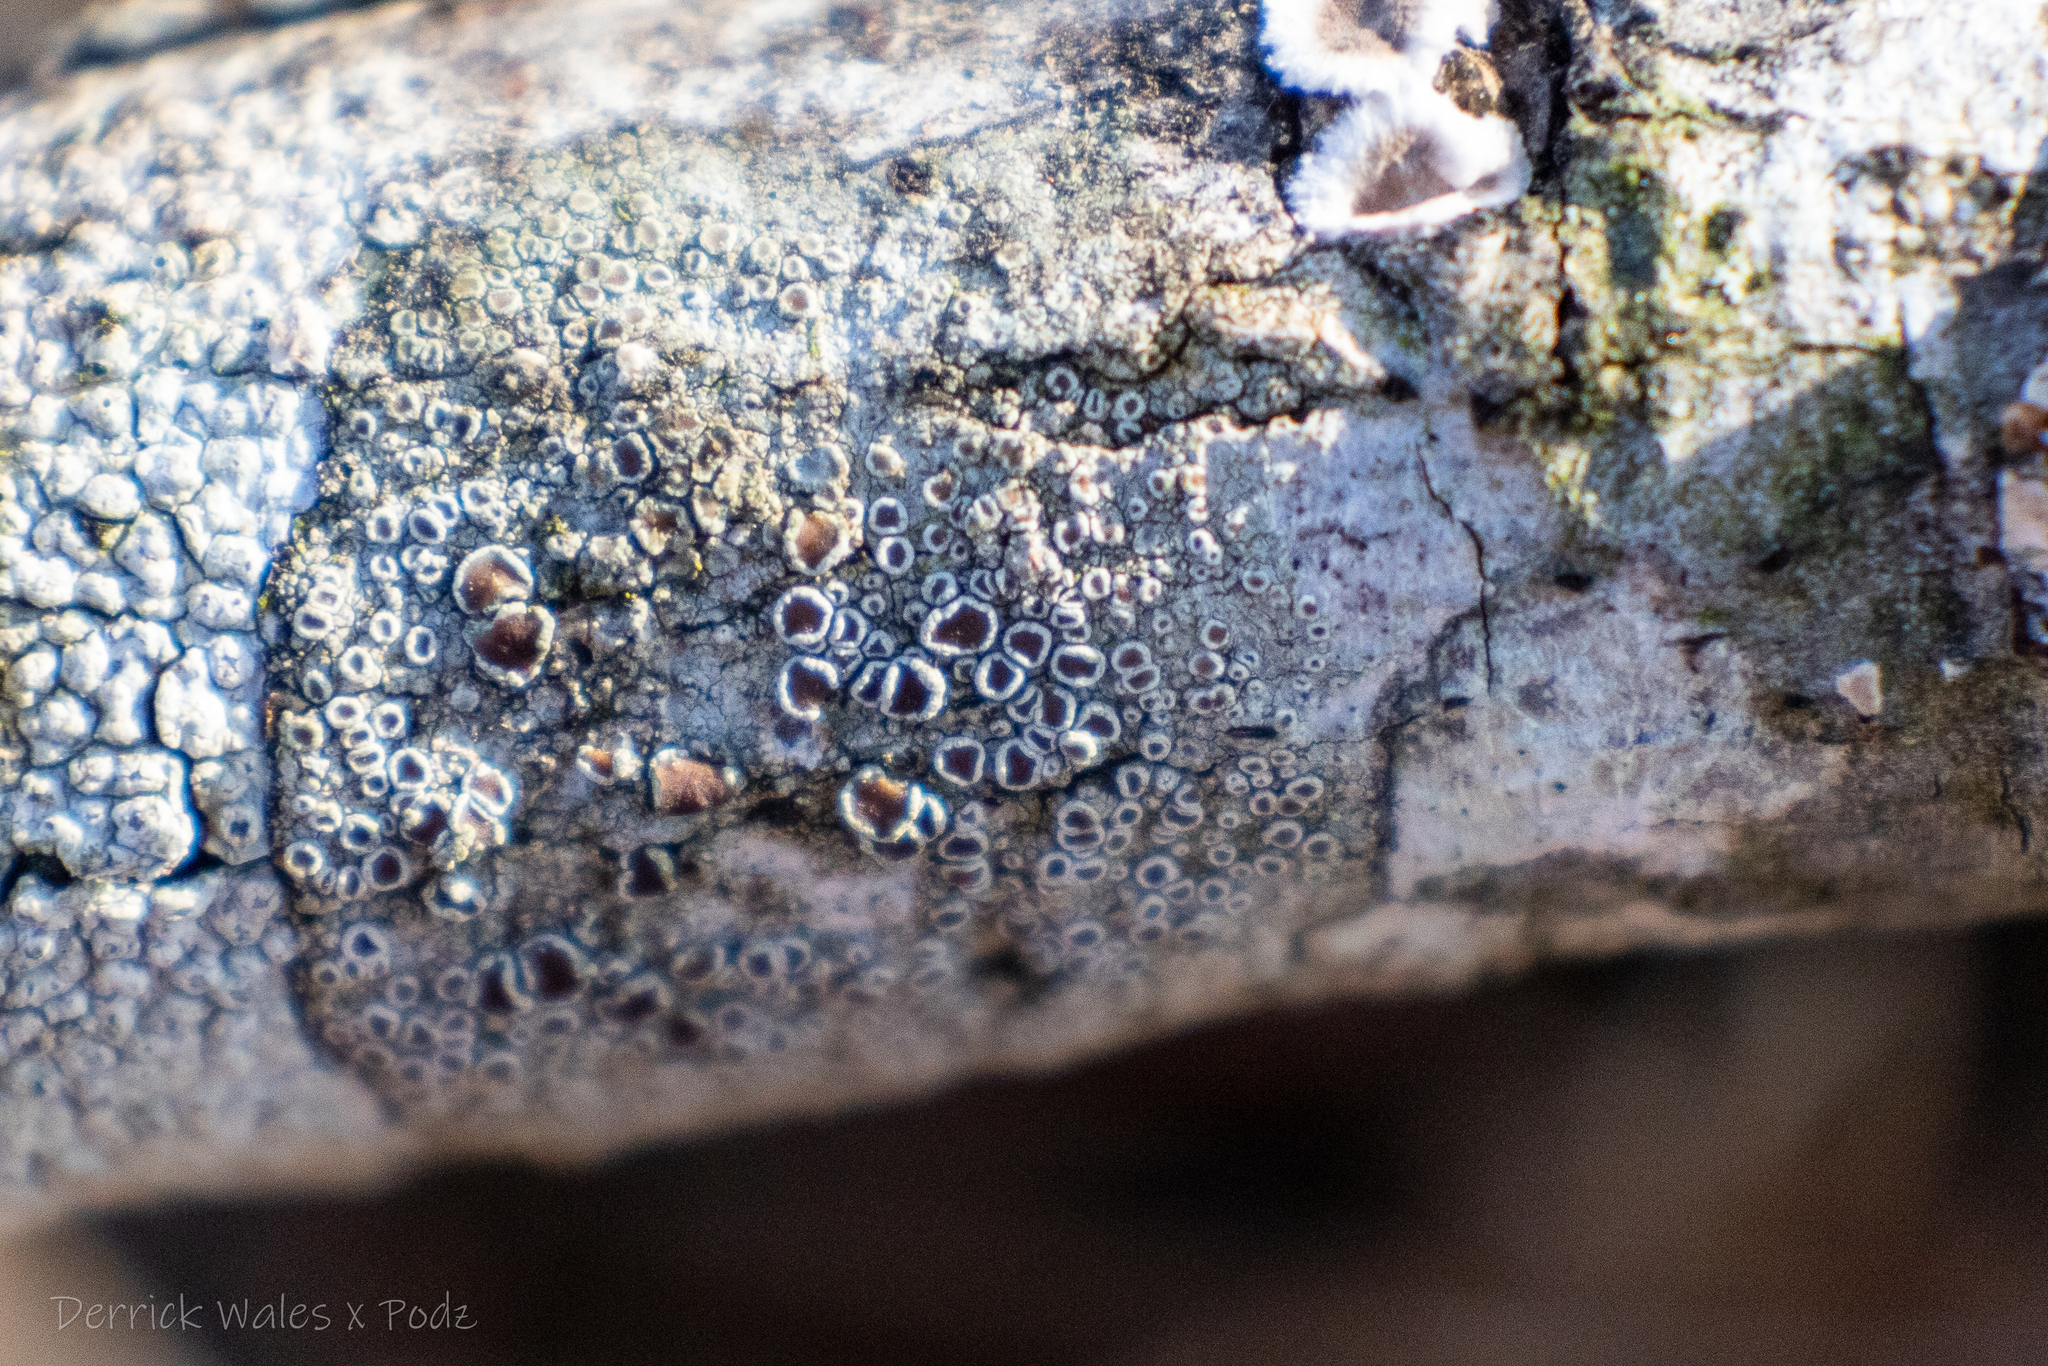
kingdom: Fungi
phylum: Ascomycota
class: Lecanoromycetes
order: Lecanorales
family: Lecanoraceae
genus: Lecanora
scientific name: Lecanora imshaugi
